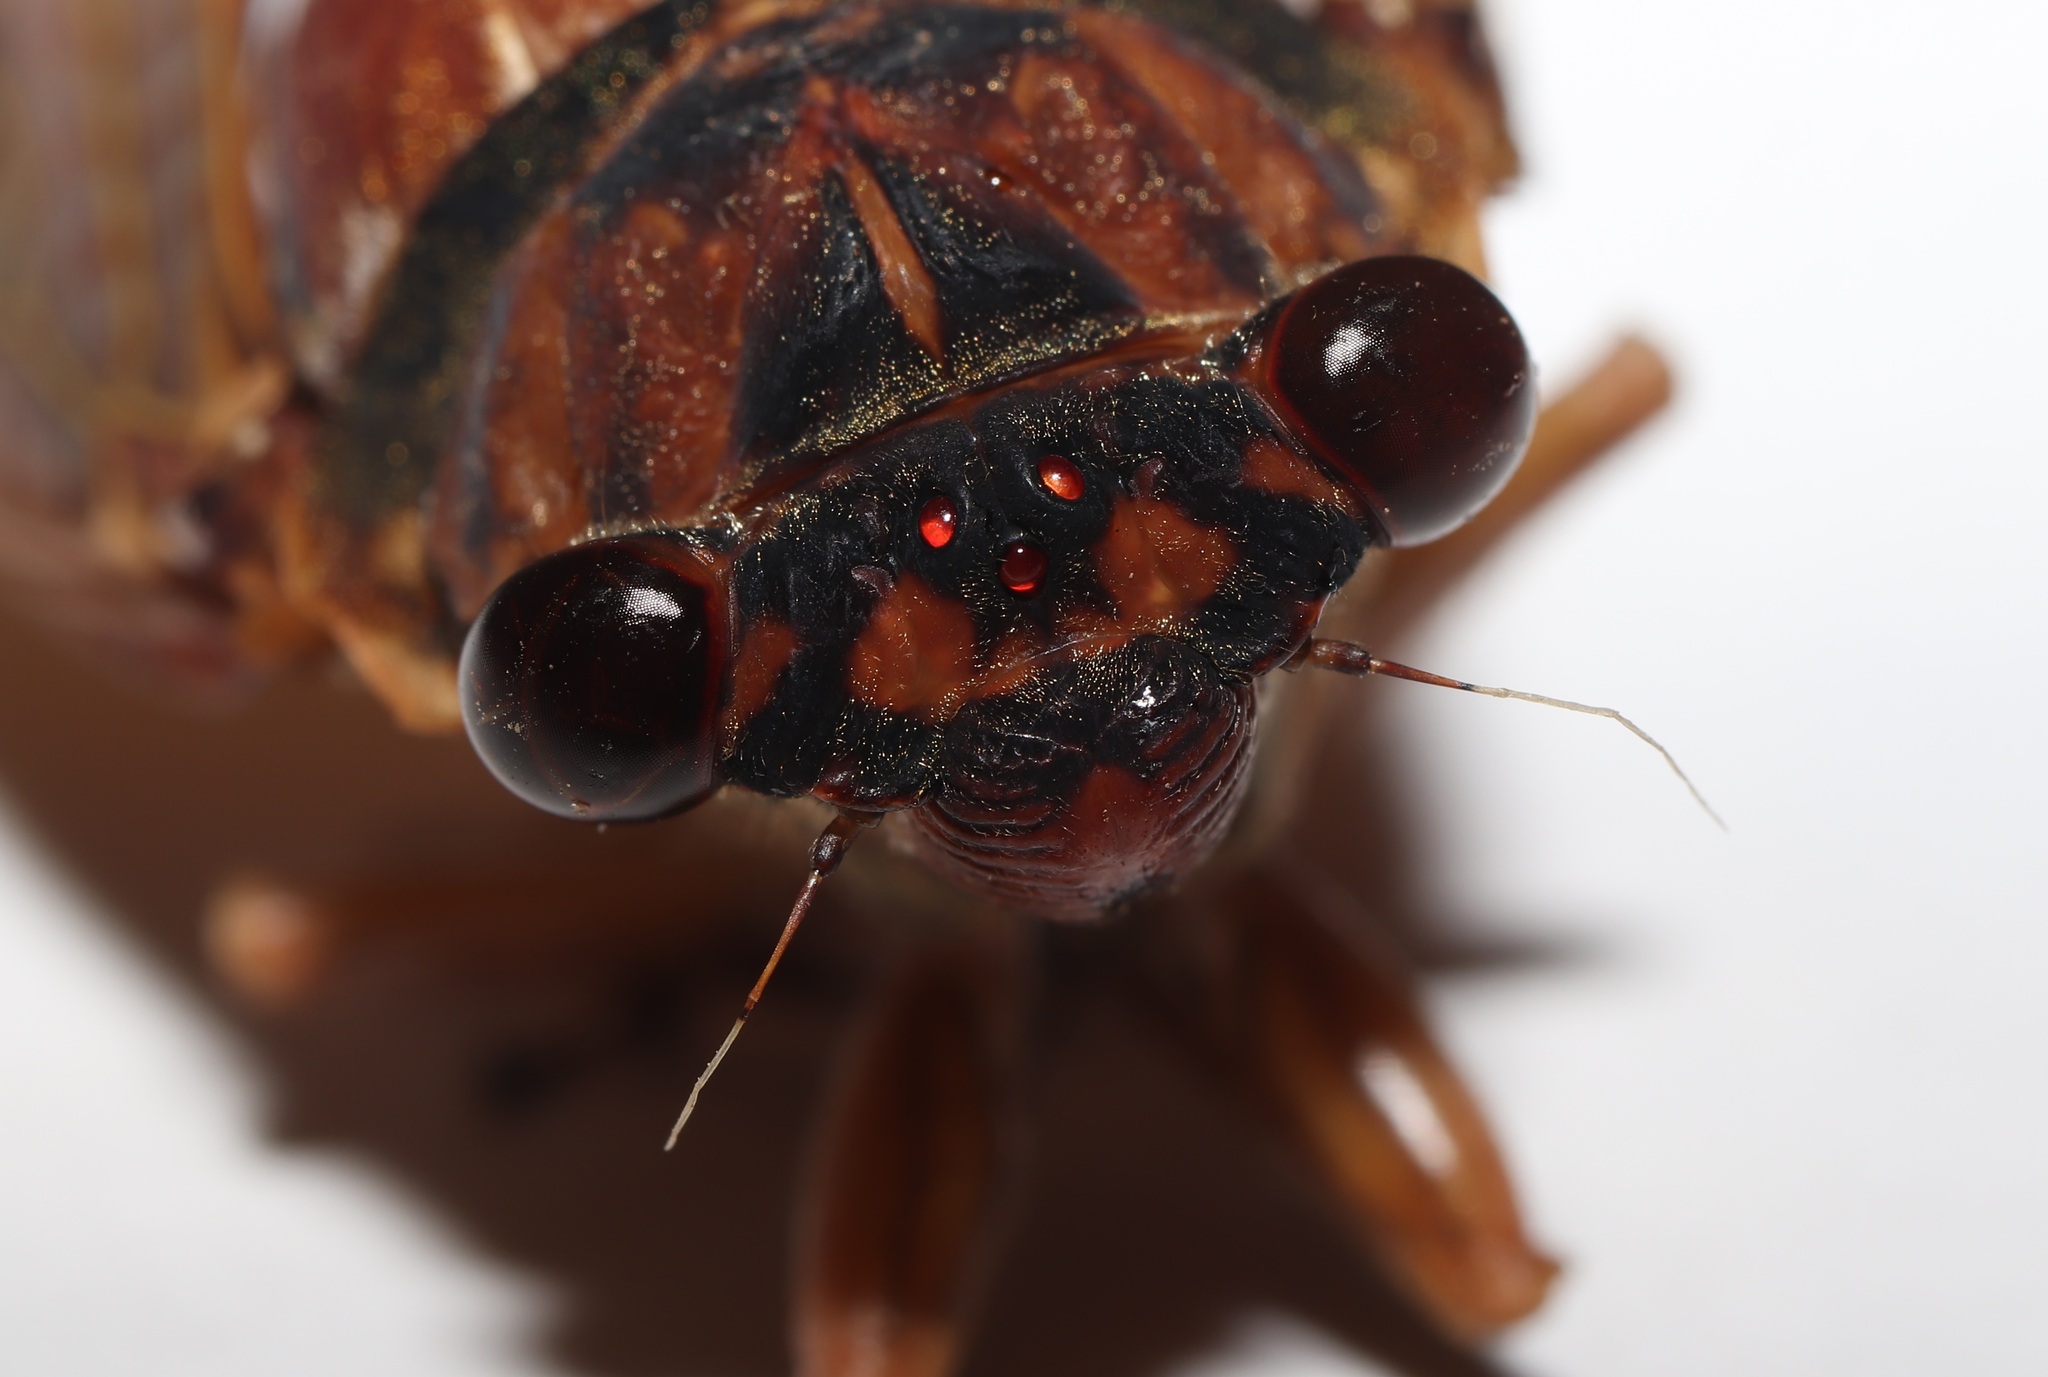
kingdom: Animalia
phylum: Arthropoda
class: Insecta
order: Hemiptera
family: Cicadidae
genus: Graptopsaltria
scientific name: Graptopsaltria nigrofuscata
